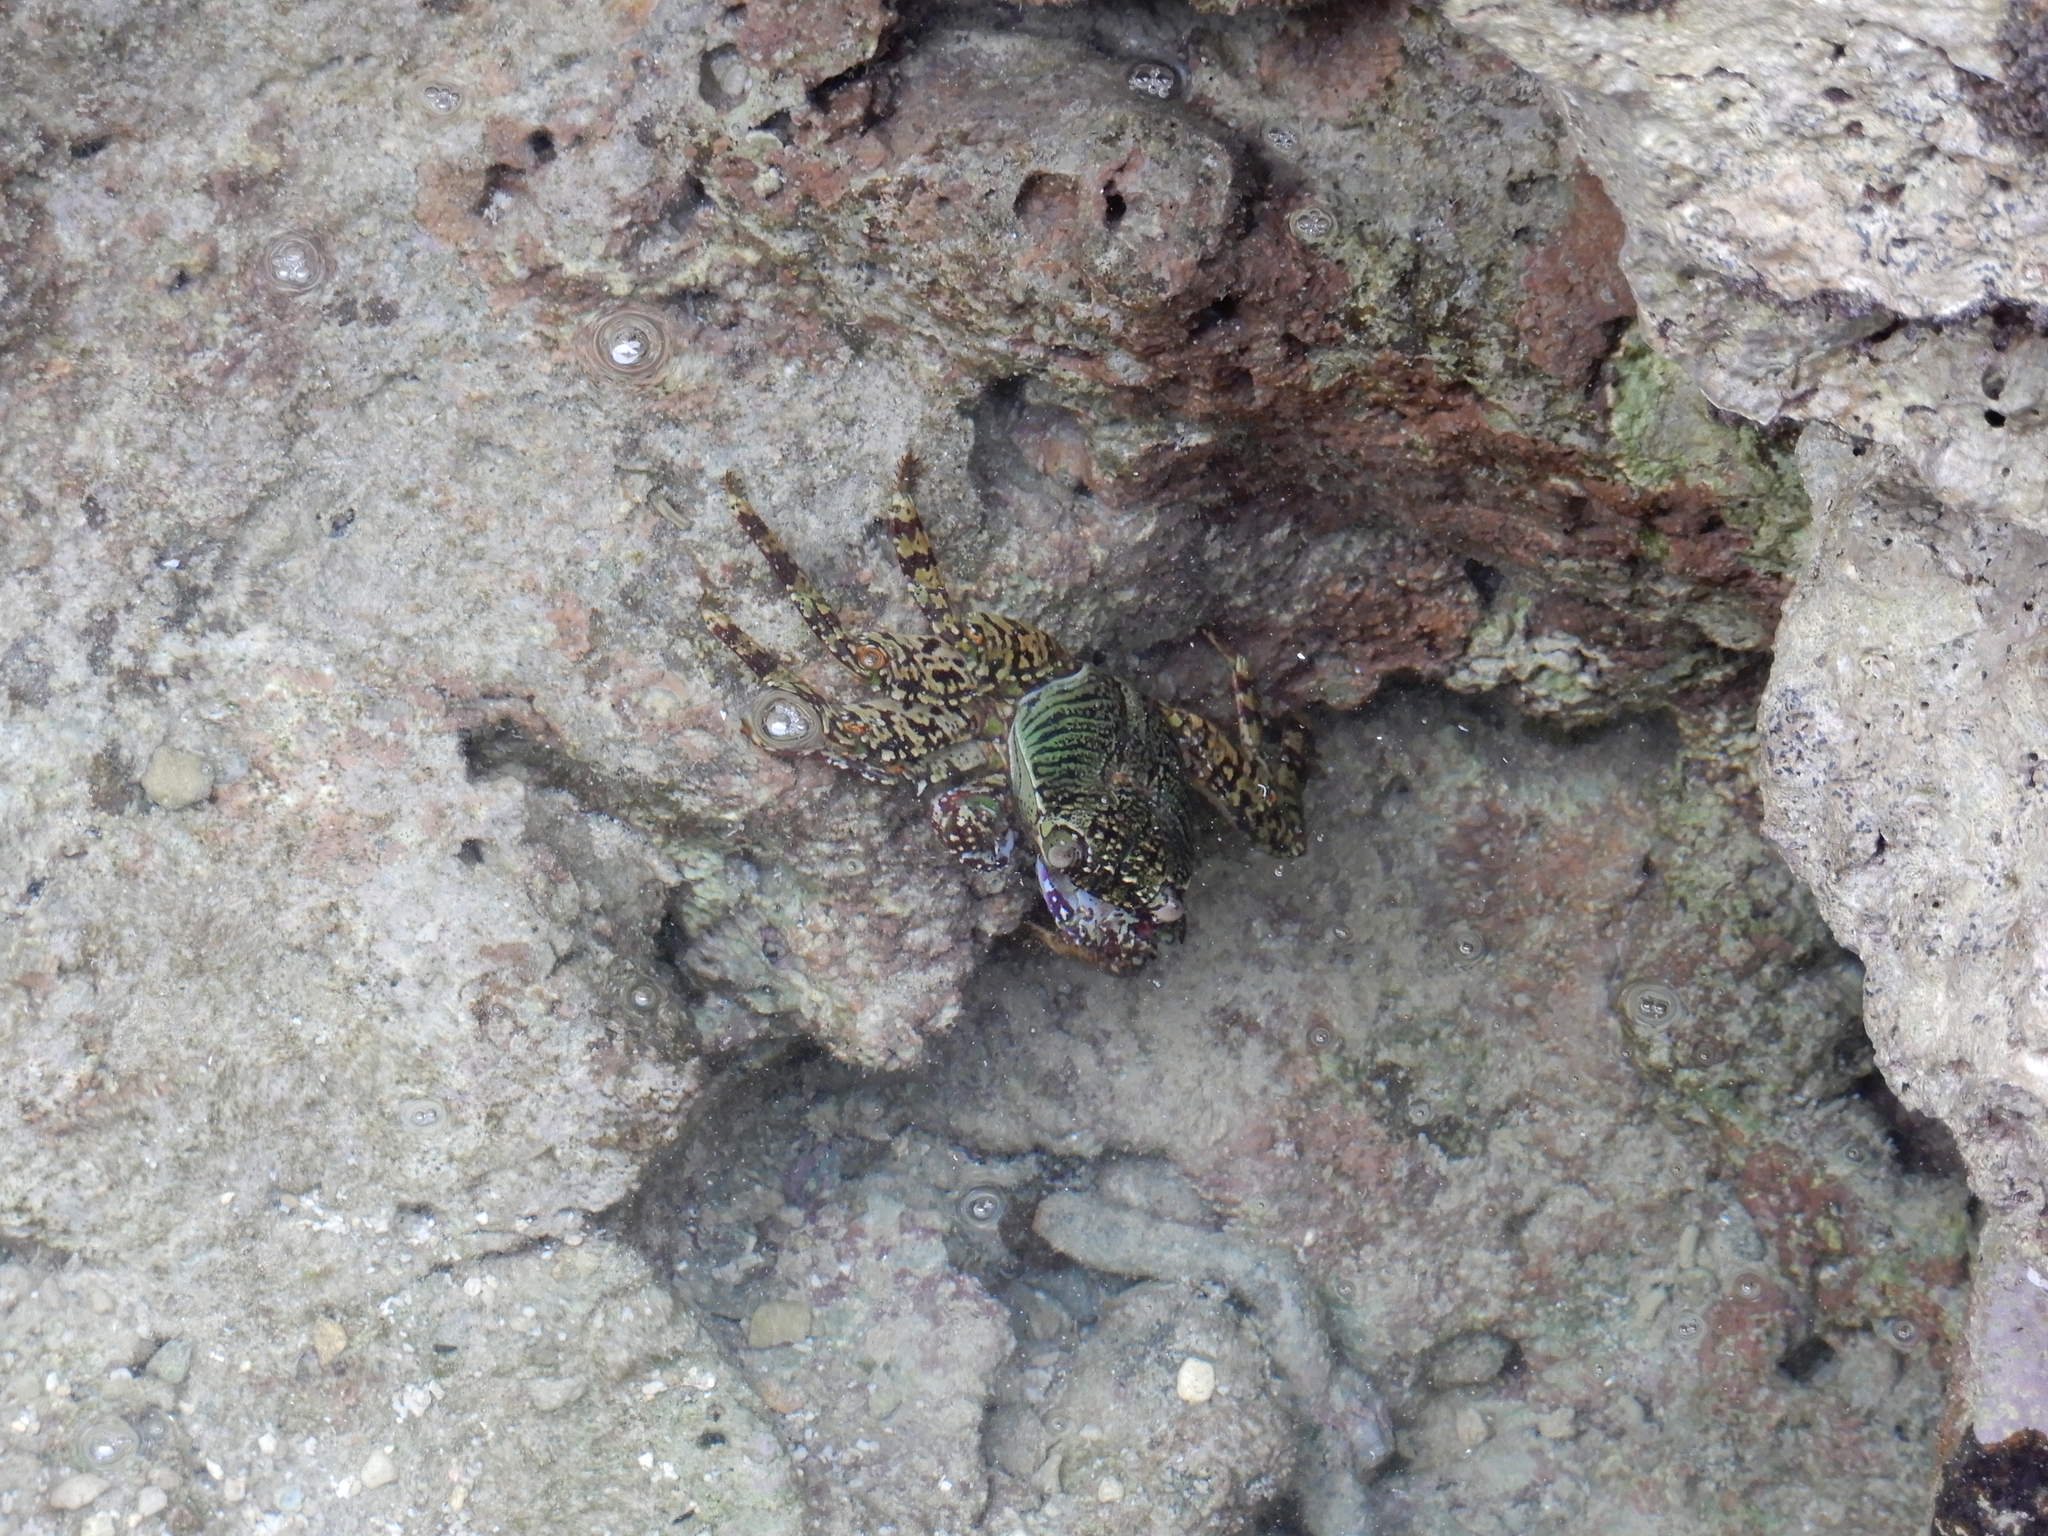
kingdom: Animalia
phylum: Arthropoda
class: Malacostraca
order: Decapoda
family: Grapsidae
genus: Grapsus
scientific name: Grapsus albolineatus
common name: Mottled lightfoot crab
